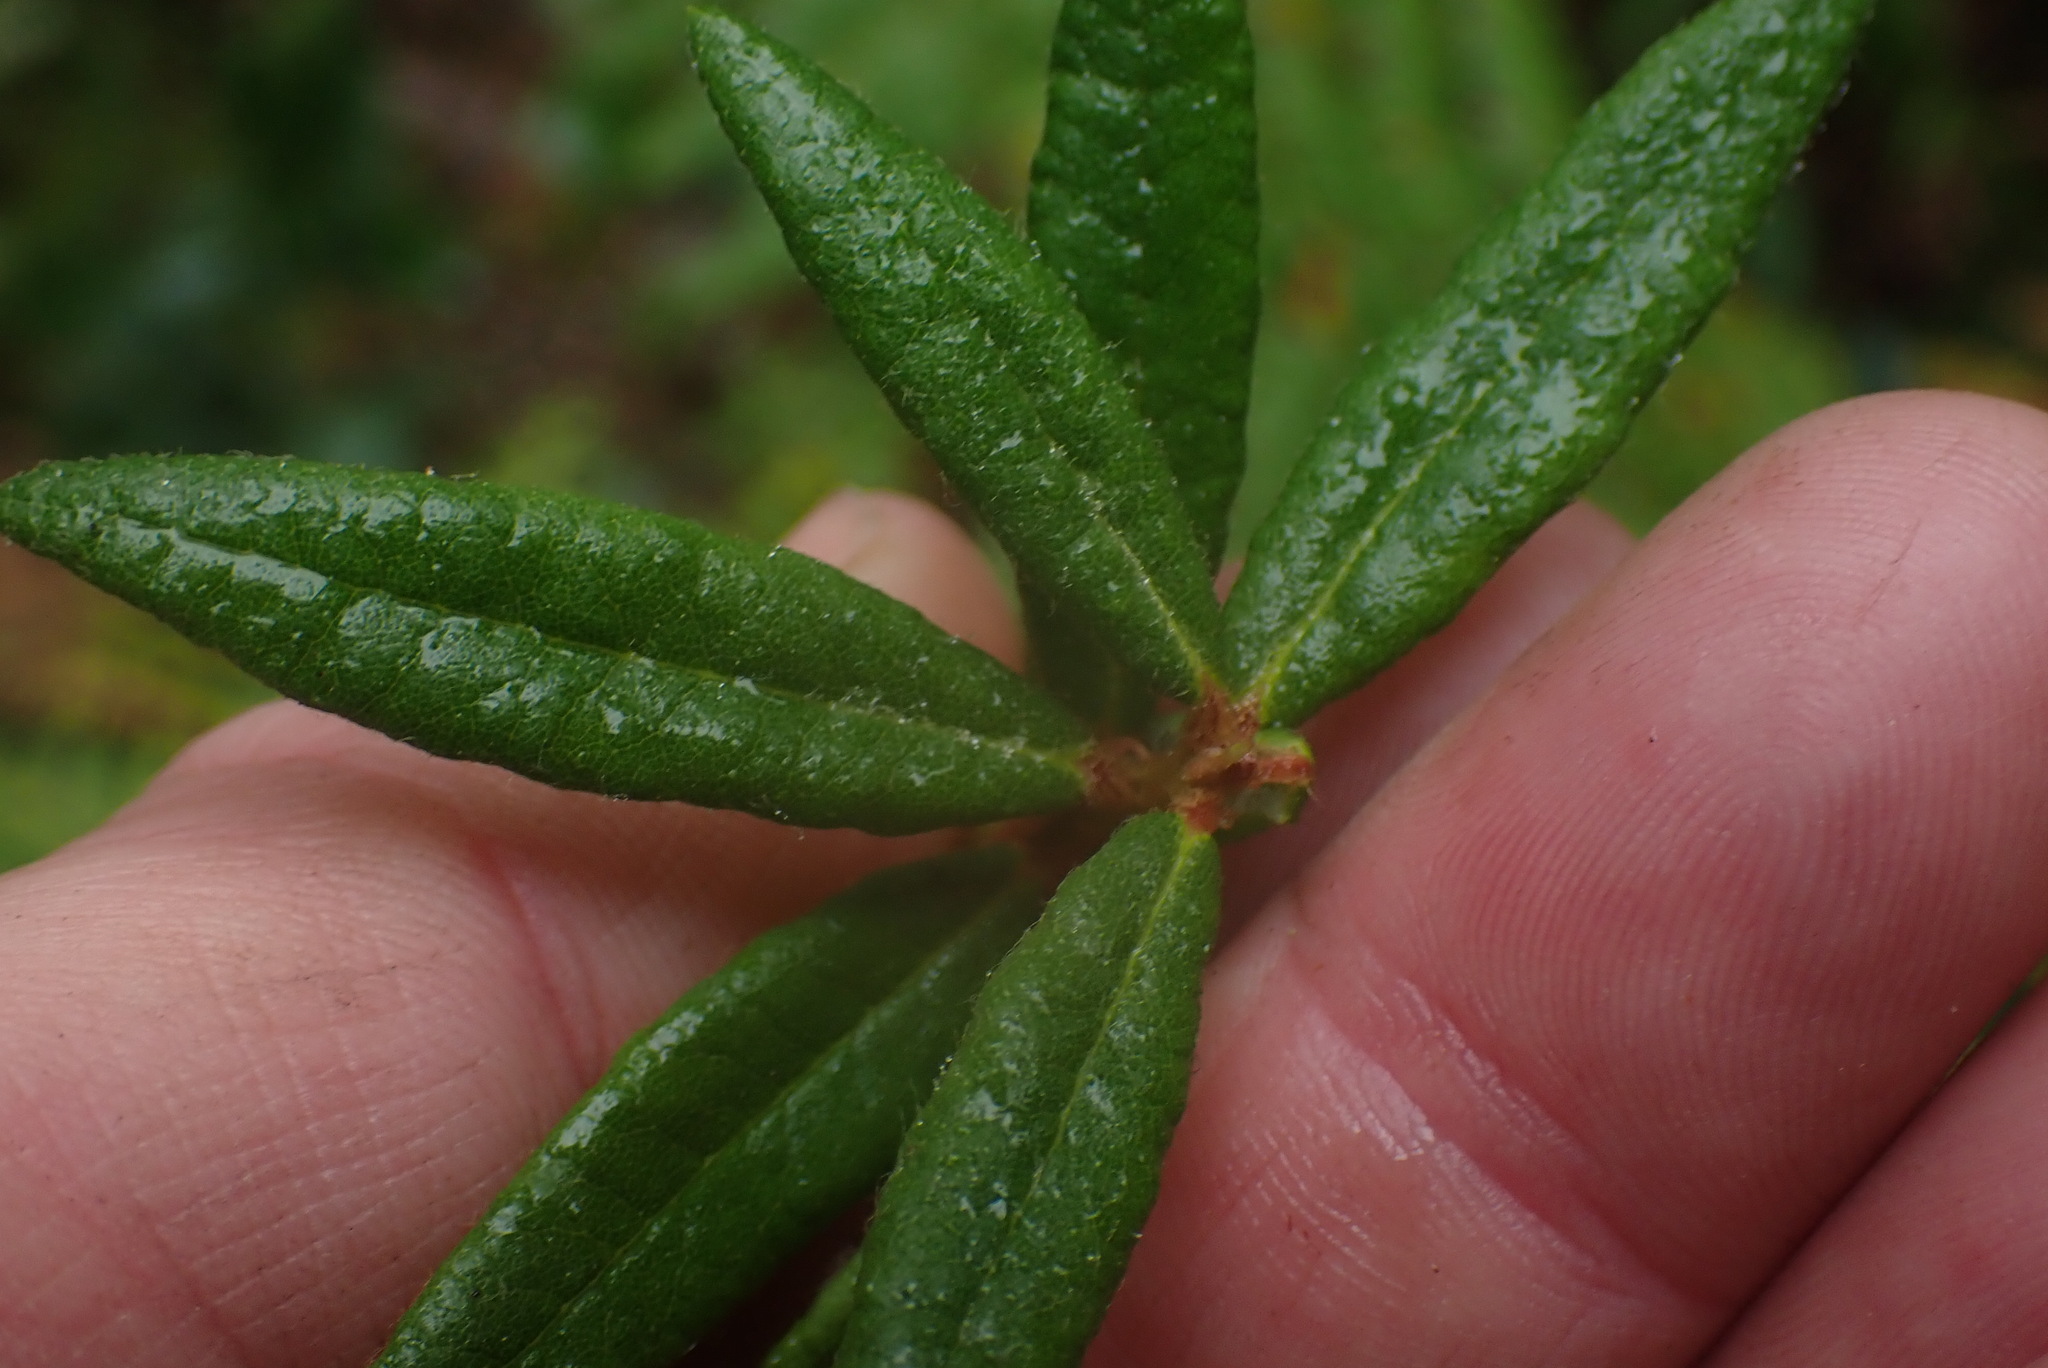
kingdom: Plantae
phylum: Tracheophyta
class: Magnoliopsida
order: Ericales
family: Ericaceae
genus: Rhododendron
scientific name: Rhododendron groenlandicum
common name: Bog labrador tea
